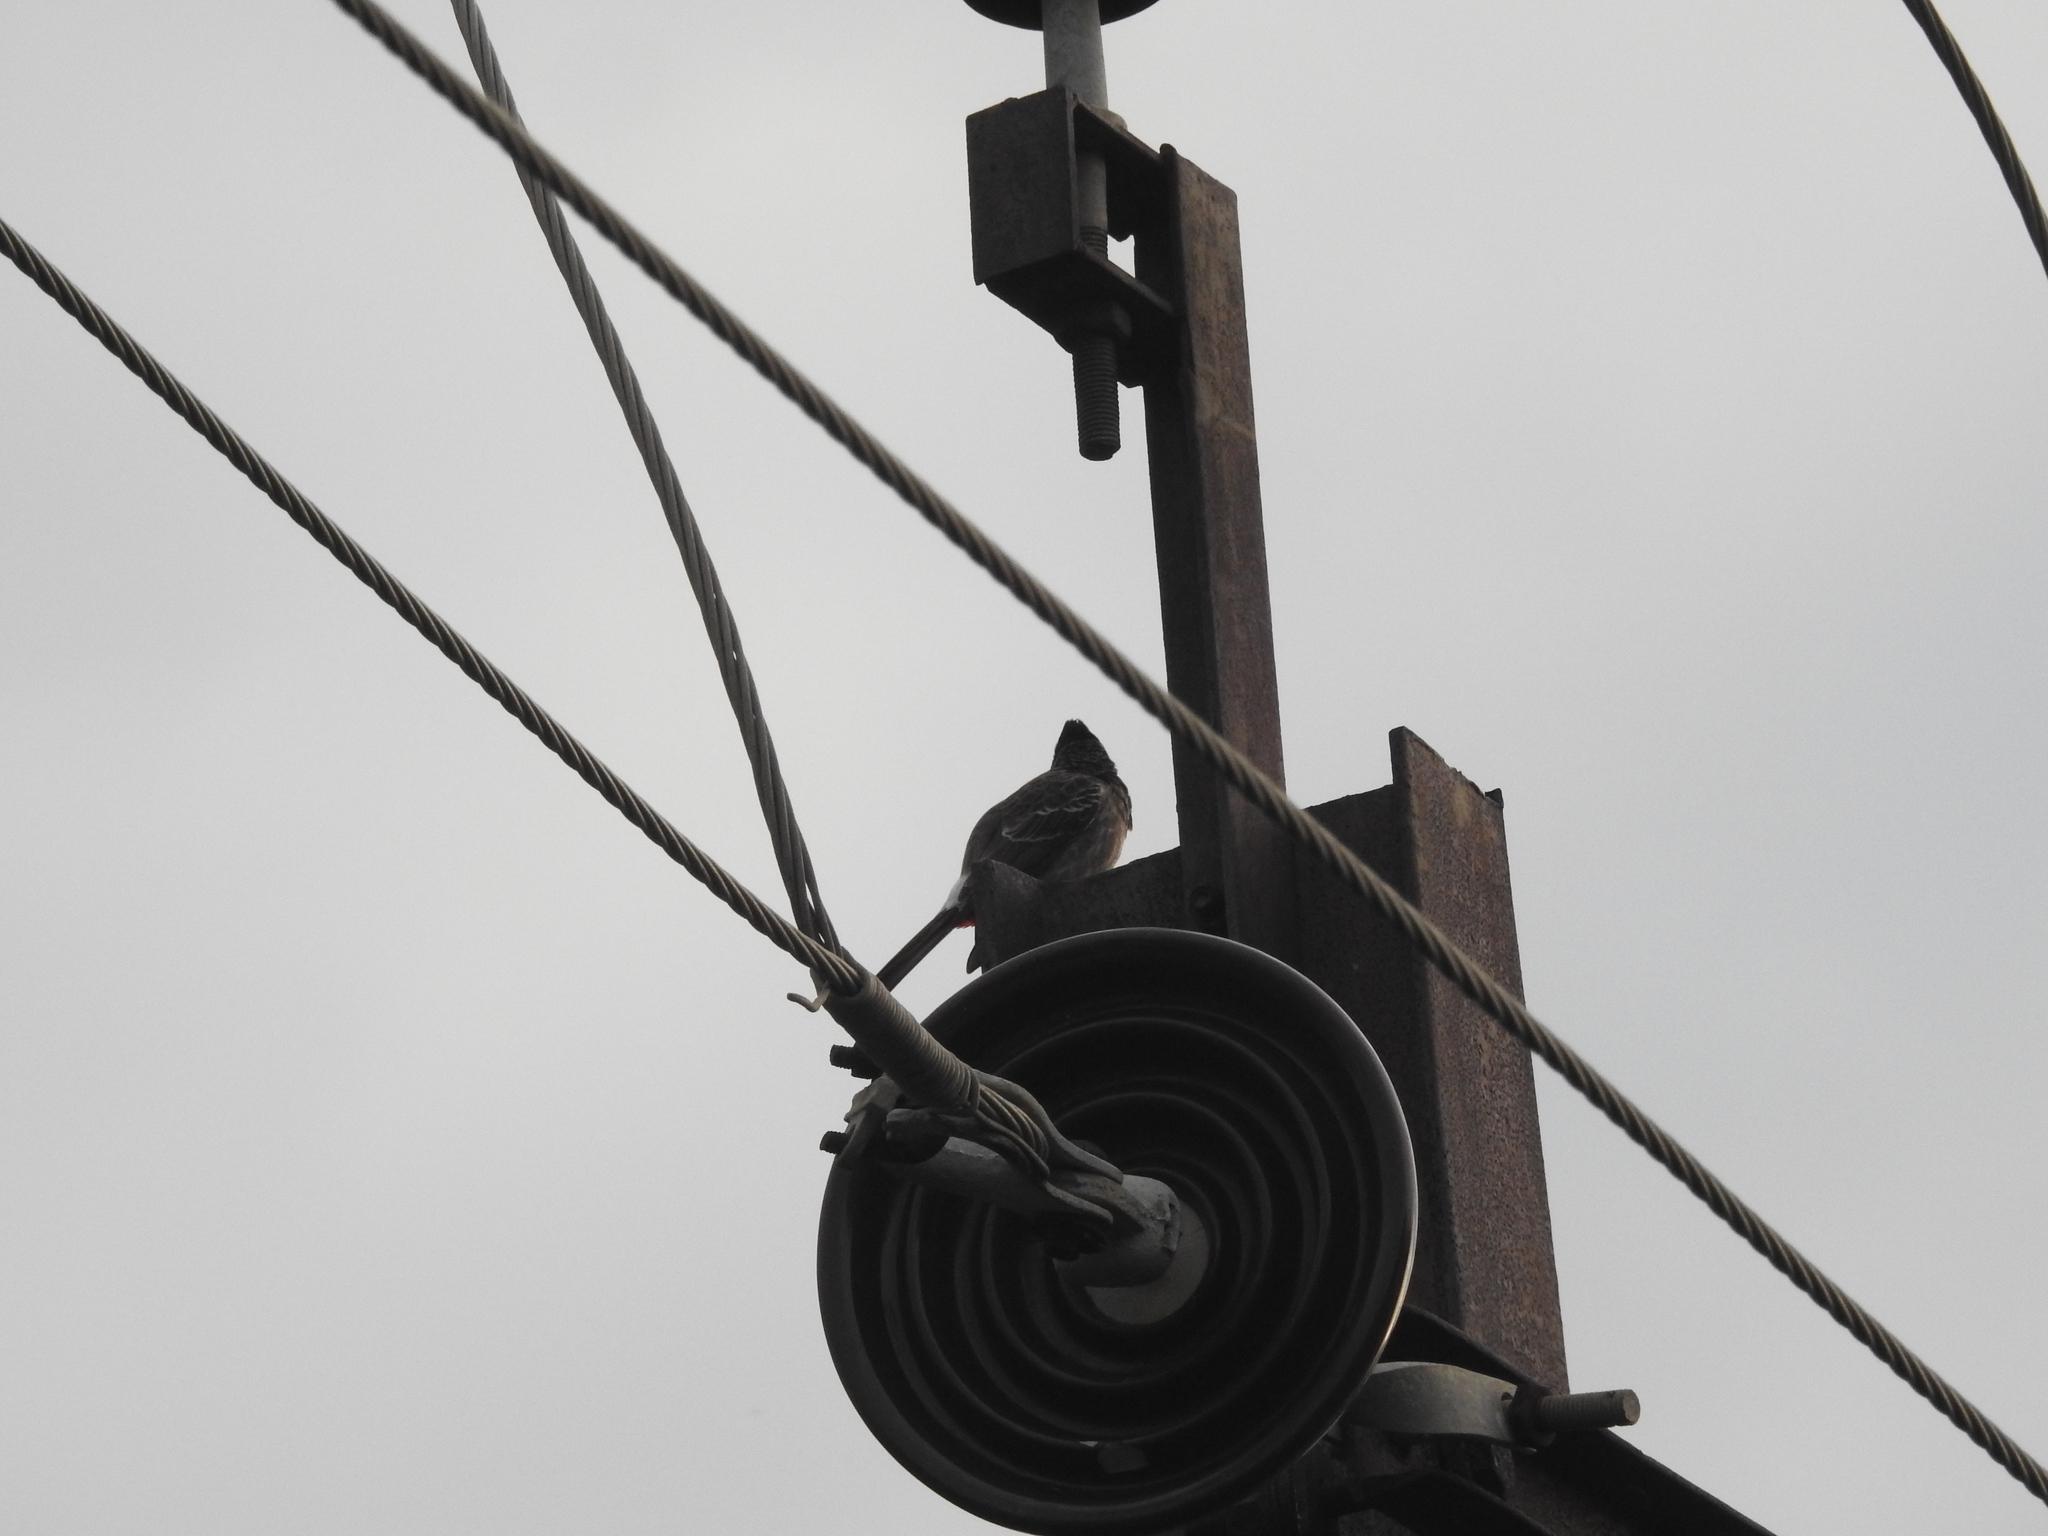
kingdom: Animalia
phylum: Chordata
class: Aves
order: Passeriformes
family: Pycnonotidae
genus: Pycnonotus
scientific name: Pycnonotus cafer
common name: Red-vented bulbul
